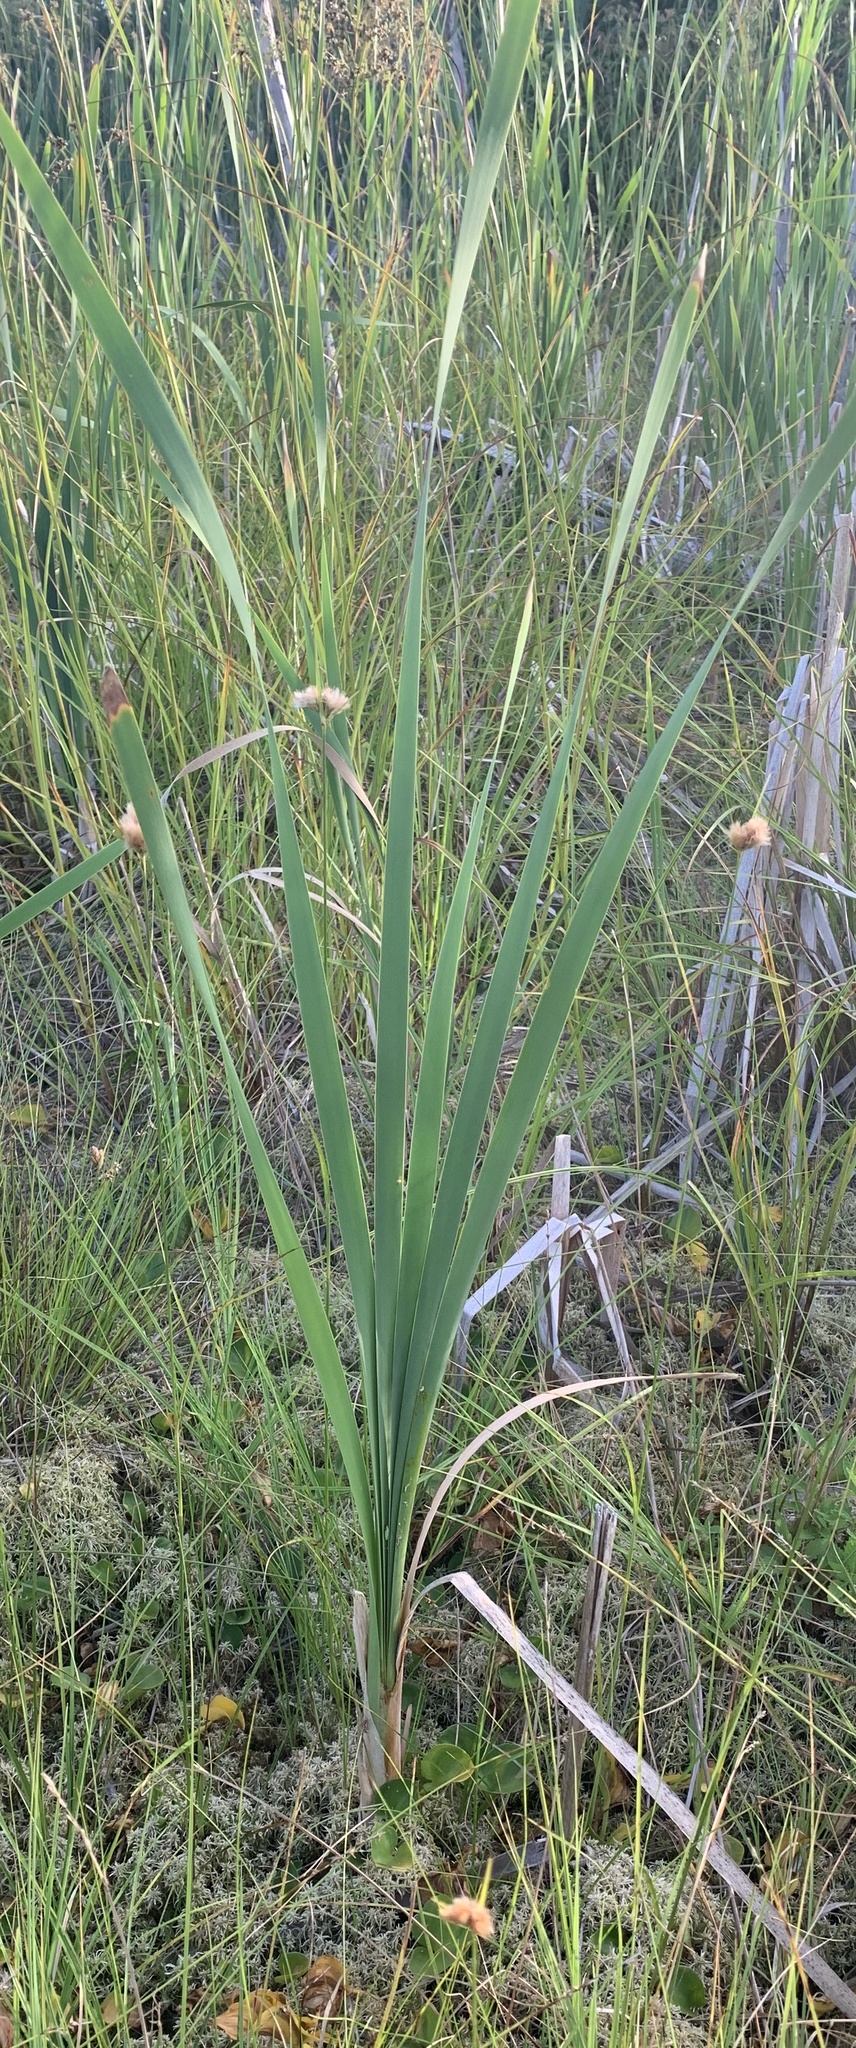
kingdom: Plantae
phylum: Tracheophyta
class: Liliopsida
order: Poales
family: Typhaceae
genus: Typha
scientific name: Typha latifolia
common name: Broadleaf cattail
